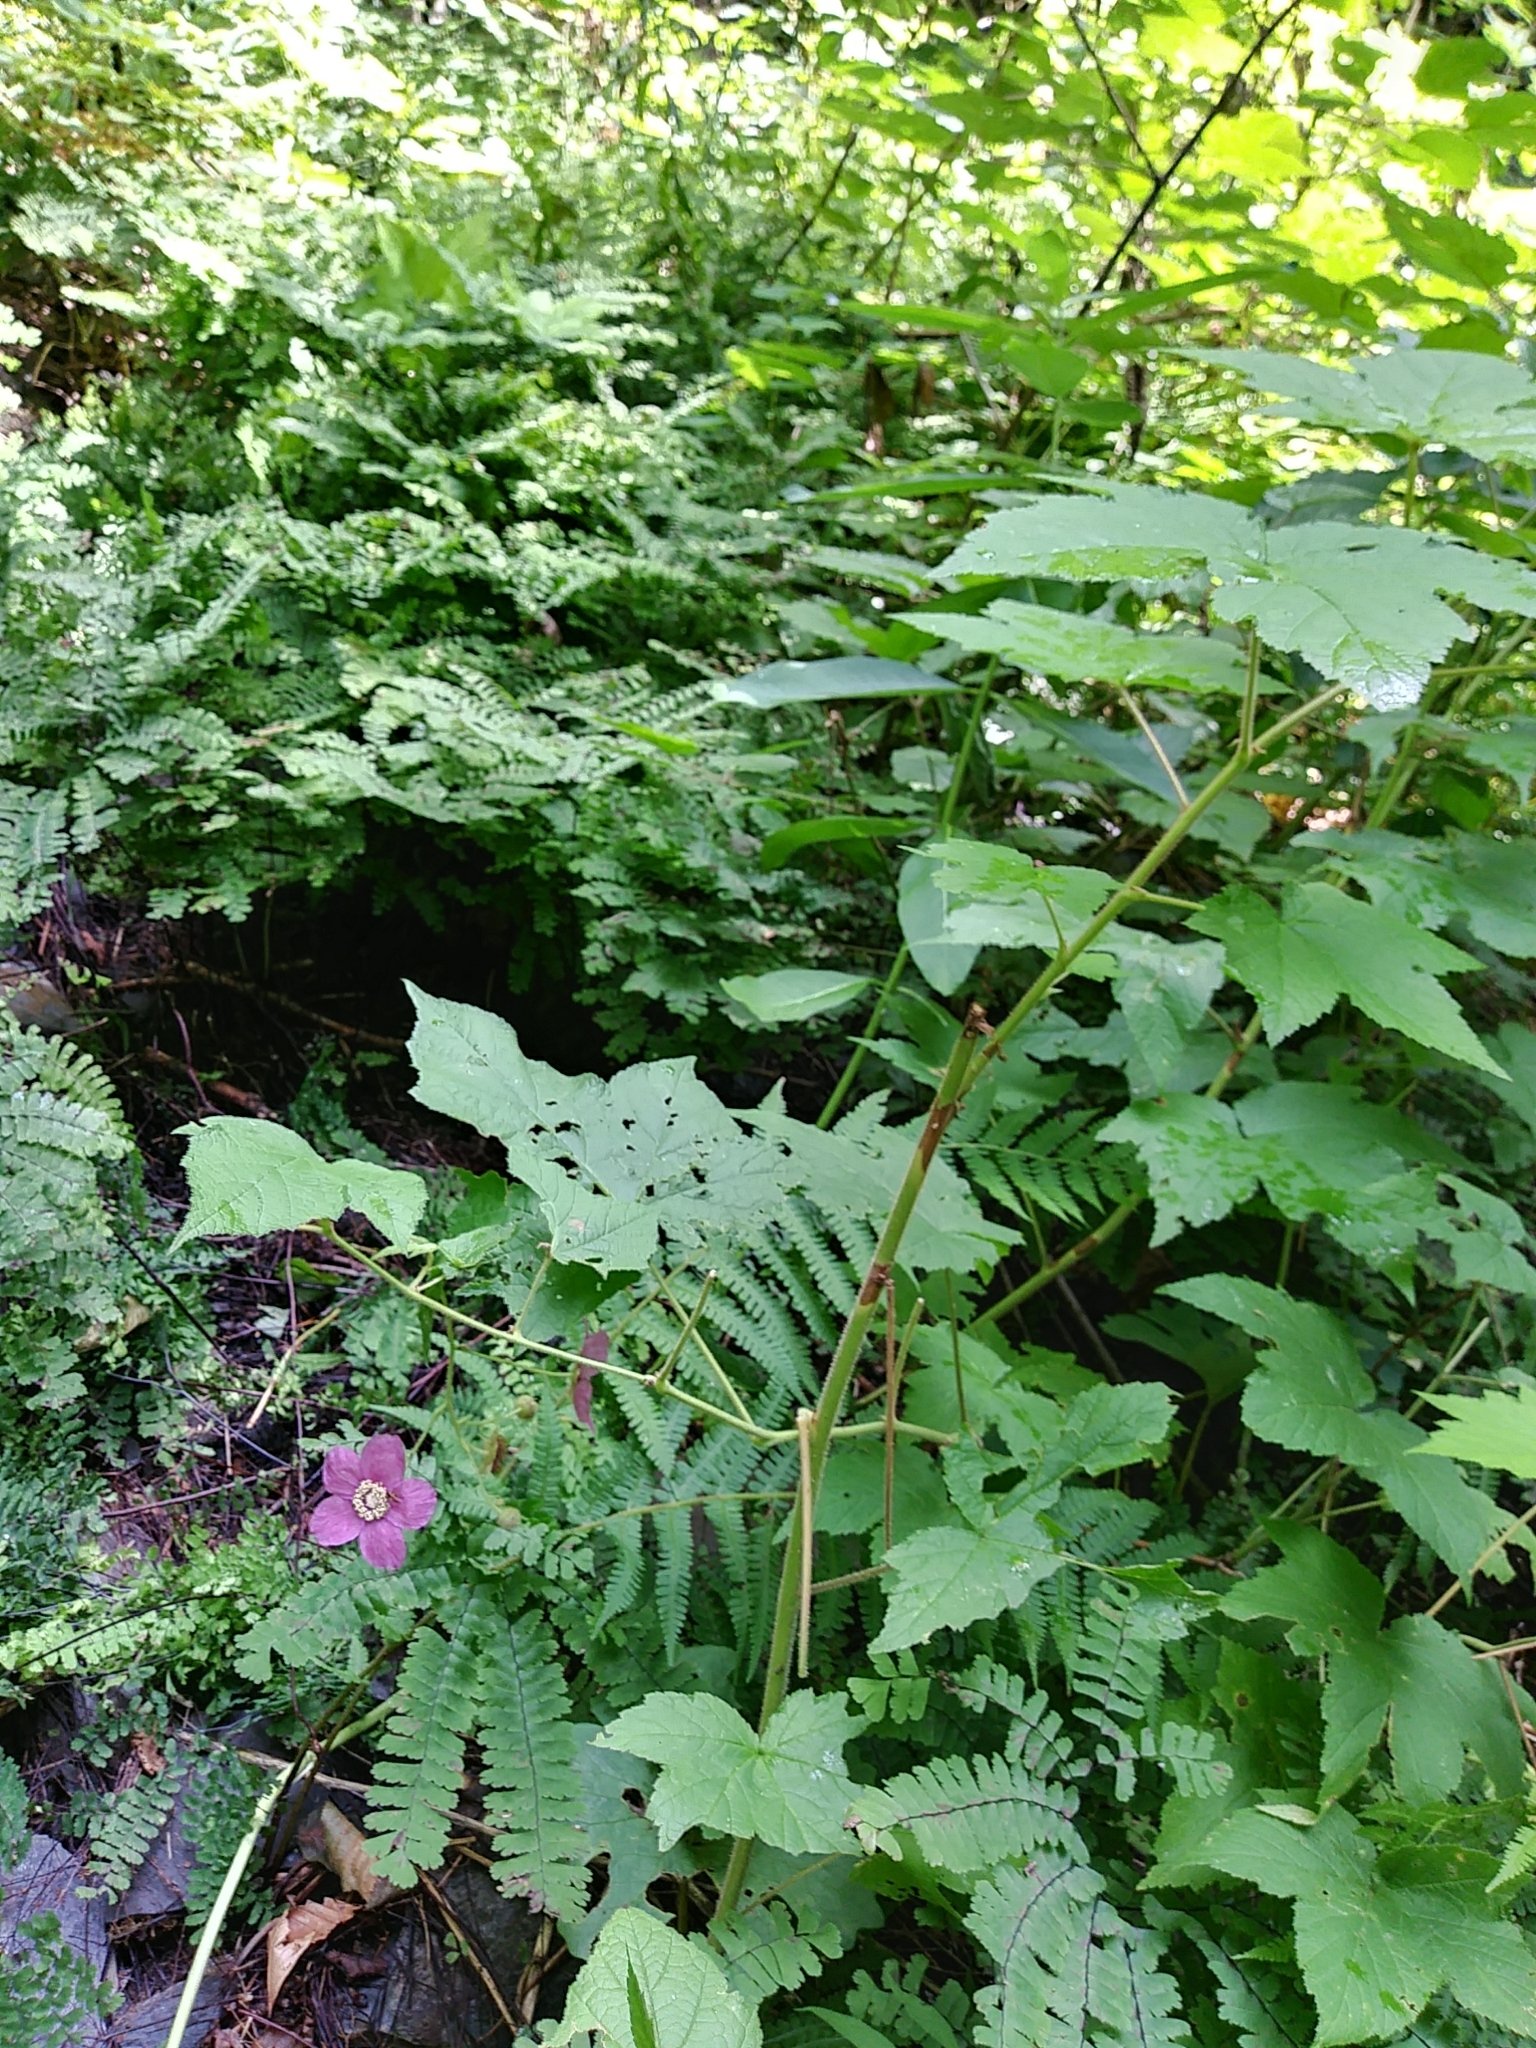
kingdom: Plantae
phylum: Tracheophyta
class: Magnoliopsida
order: Rosales
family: Rosaceae
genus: Rubus
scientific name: Rubus odoratus
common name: Purple-flowered raspberry
